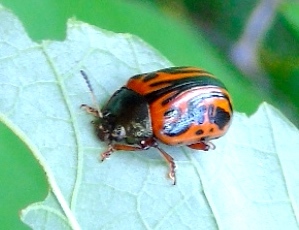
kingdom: Animalia
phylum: Arthropoda
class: Insecta
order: Coleoptera
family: Chrysomelidae
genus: Calligrapha
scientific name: Calligrapha discrepans
